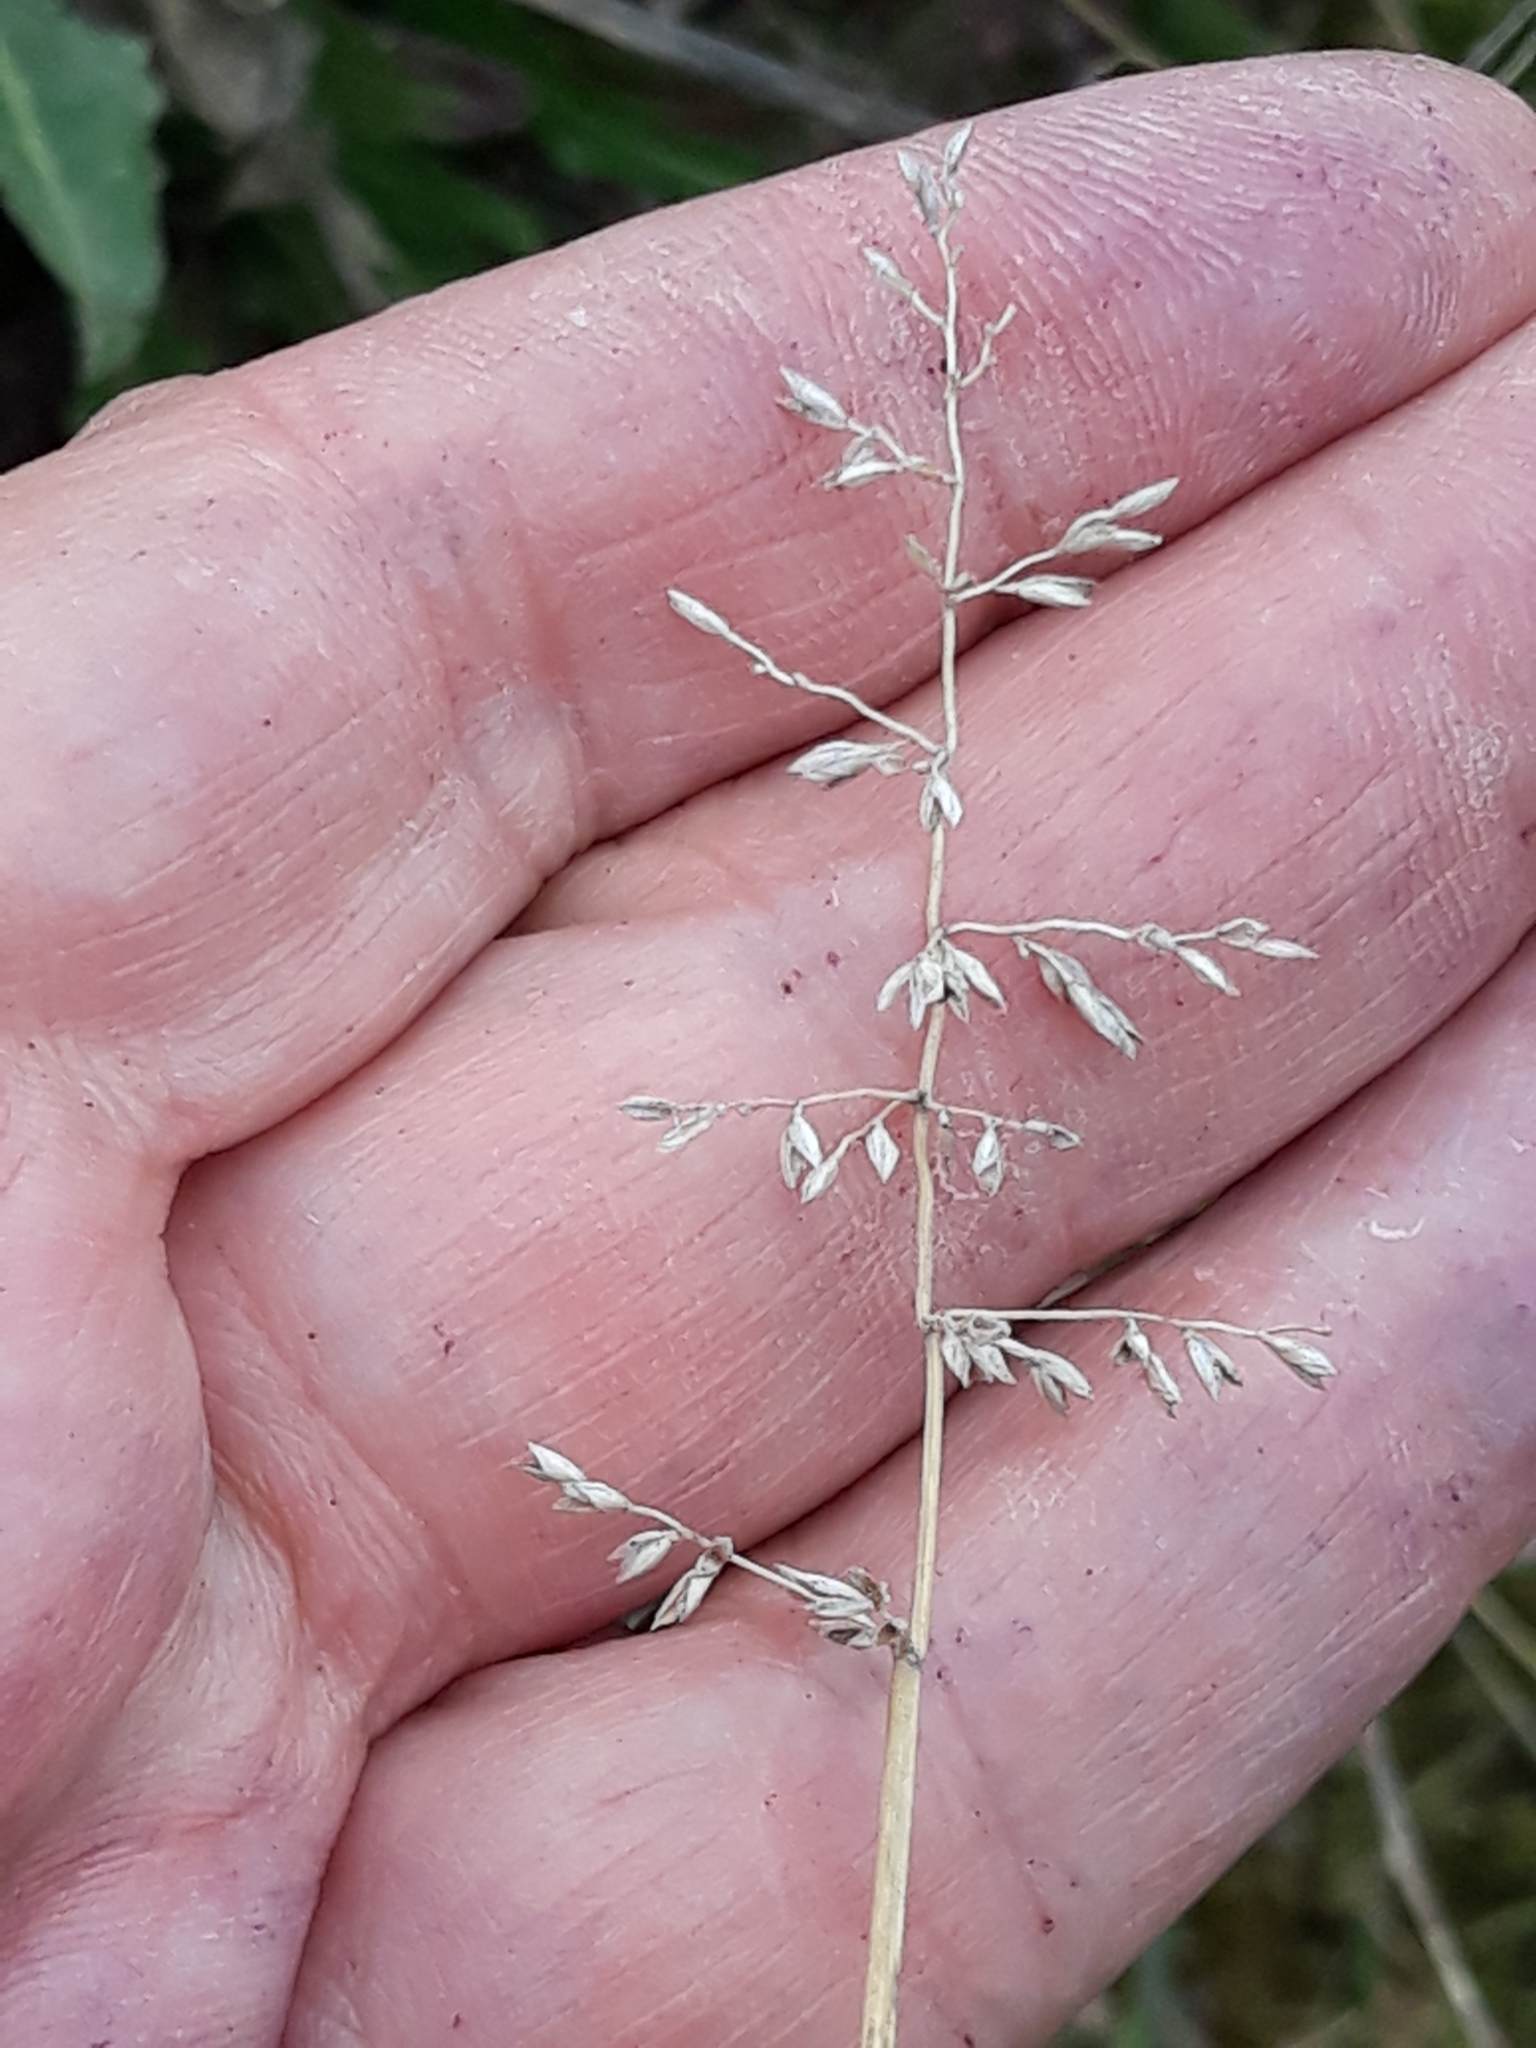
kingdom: Plantae
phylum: Tracheophyta
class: Liliopsida
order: Poales
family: Poaceae
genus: Poa
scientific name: Poa compressa
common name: Canada bluegrass
